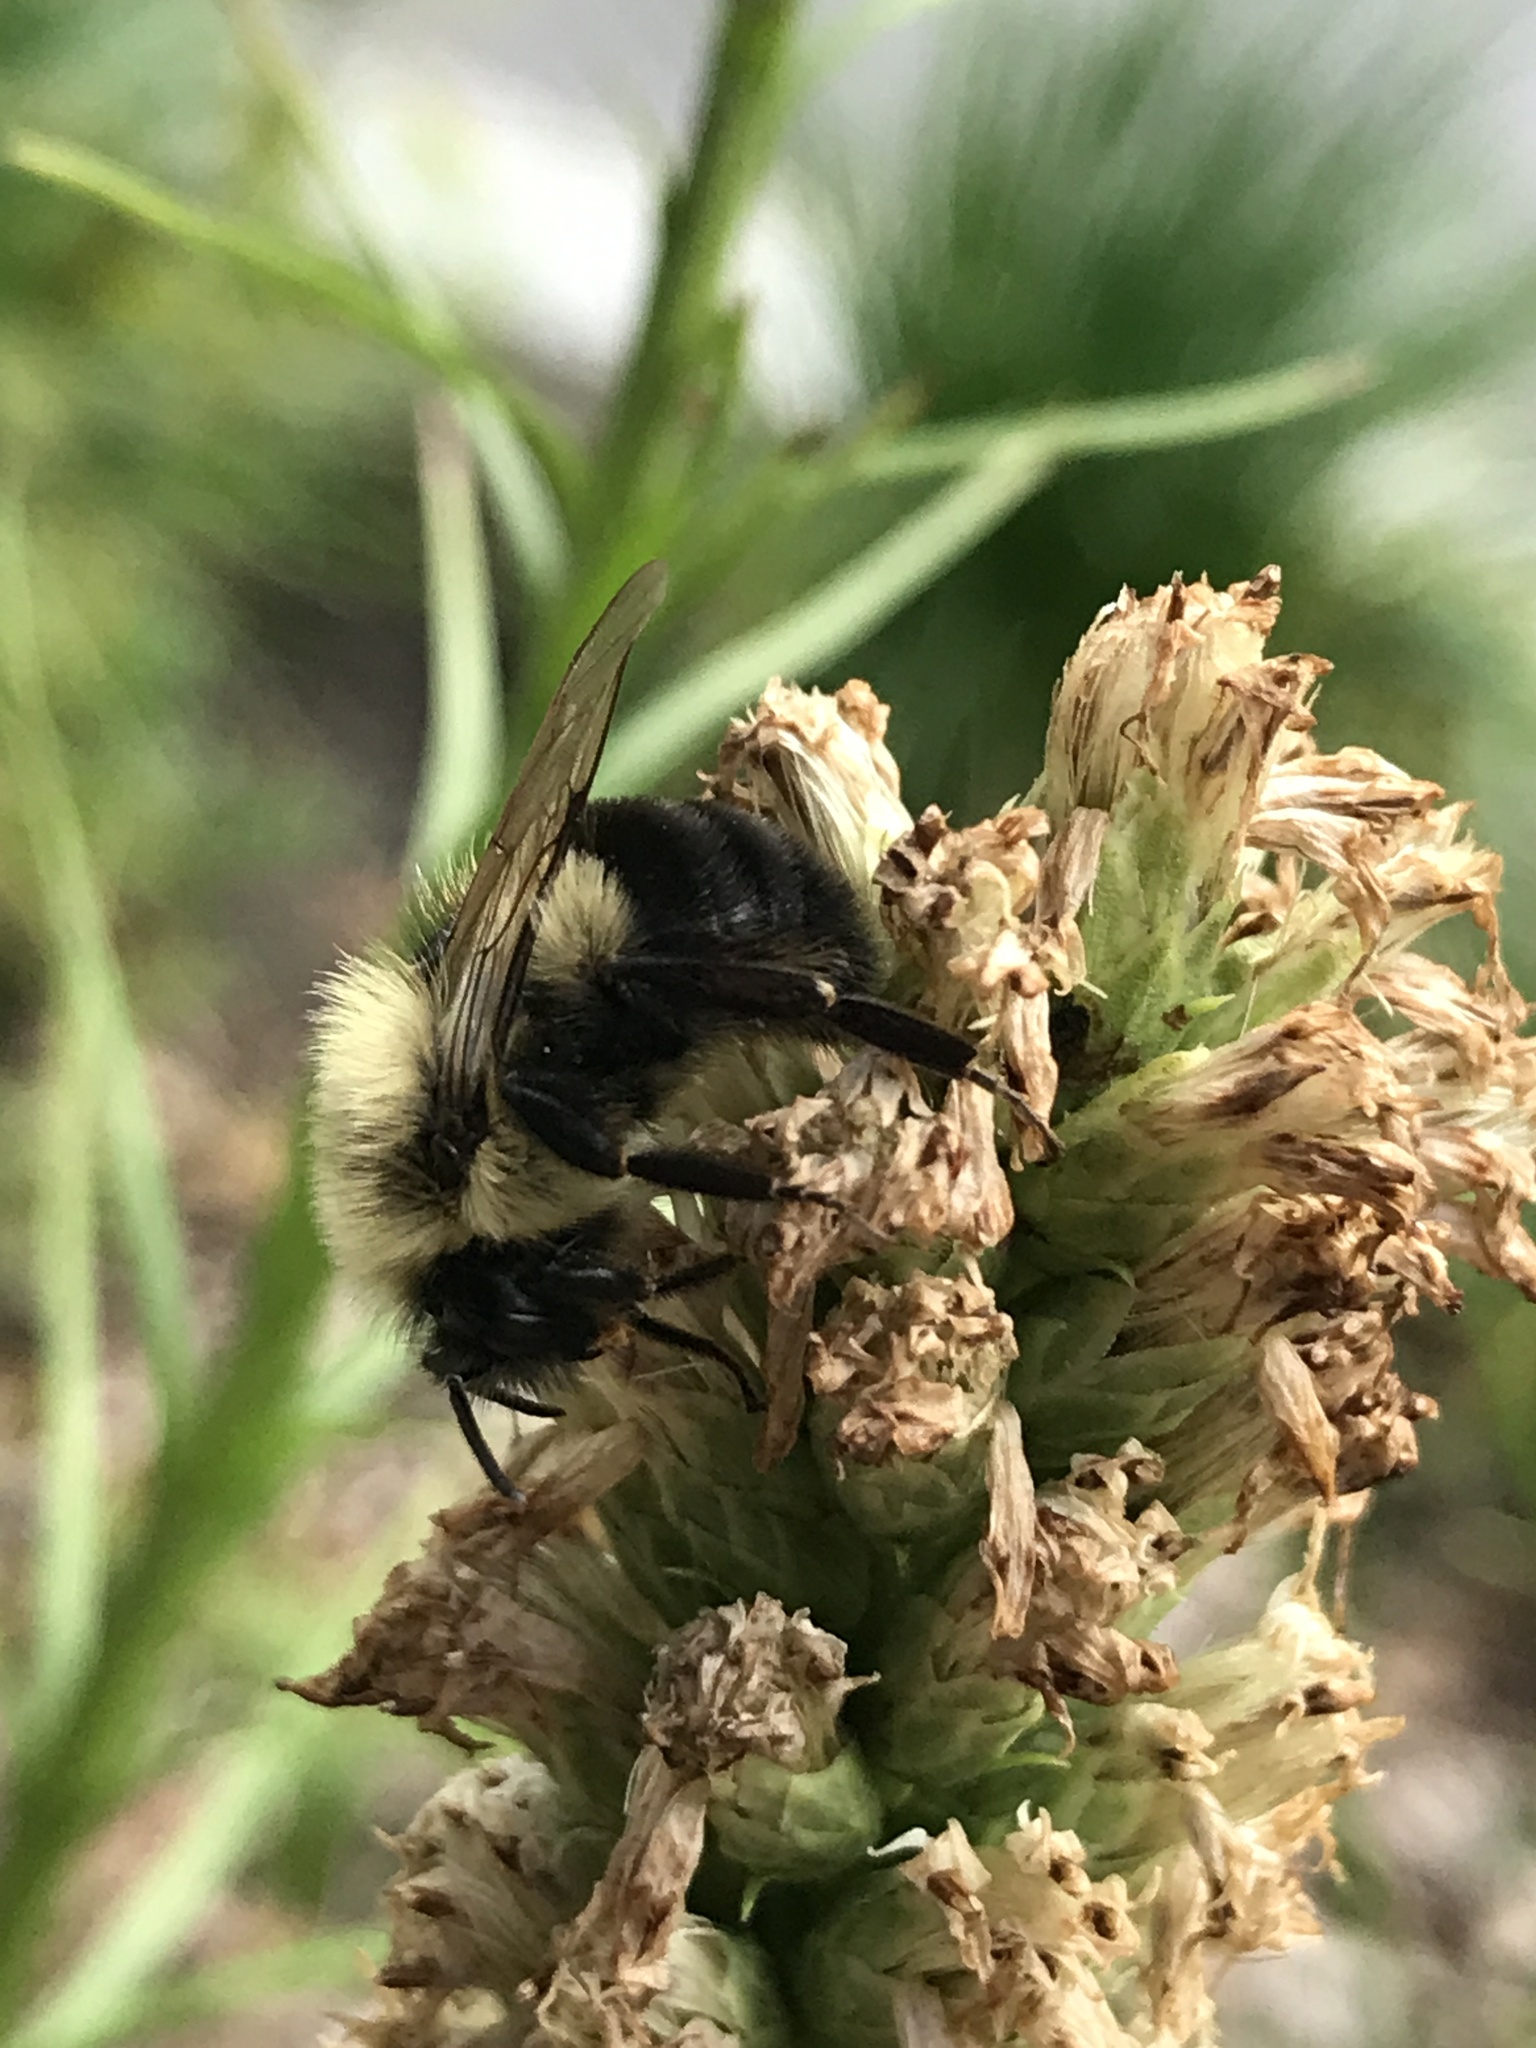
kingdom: Animalia
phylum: Arthropoda
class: Insecta
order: Hymenoptera
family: Apidae
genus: Bombus
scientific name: Bombus impatiens
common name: Common eastern bumble bee
